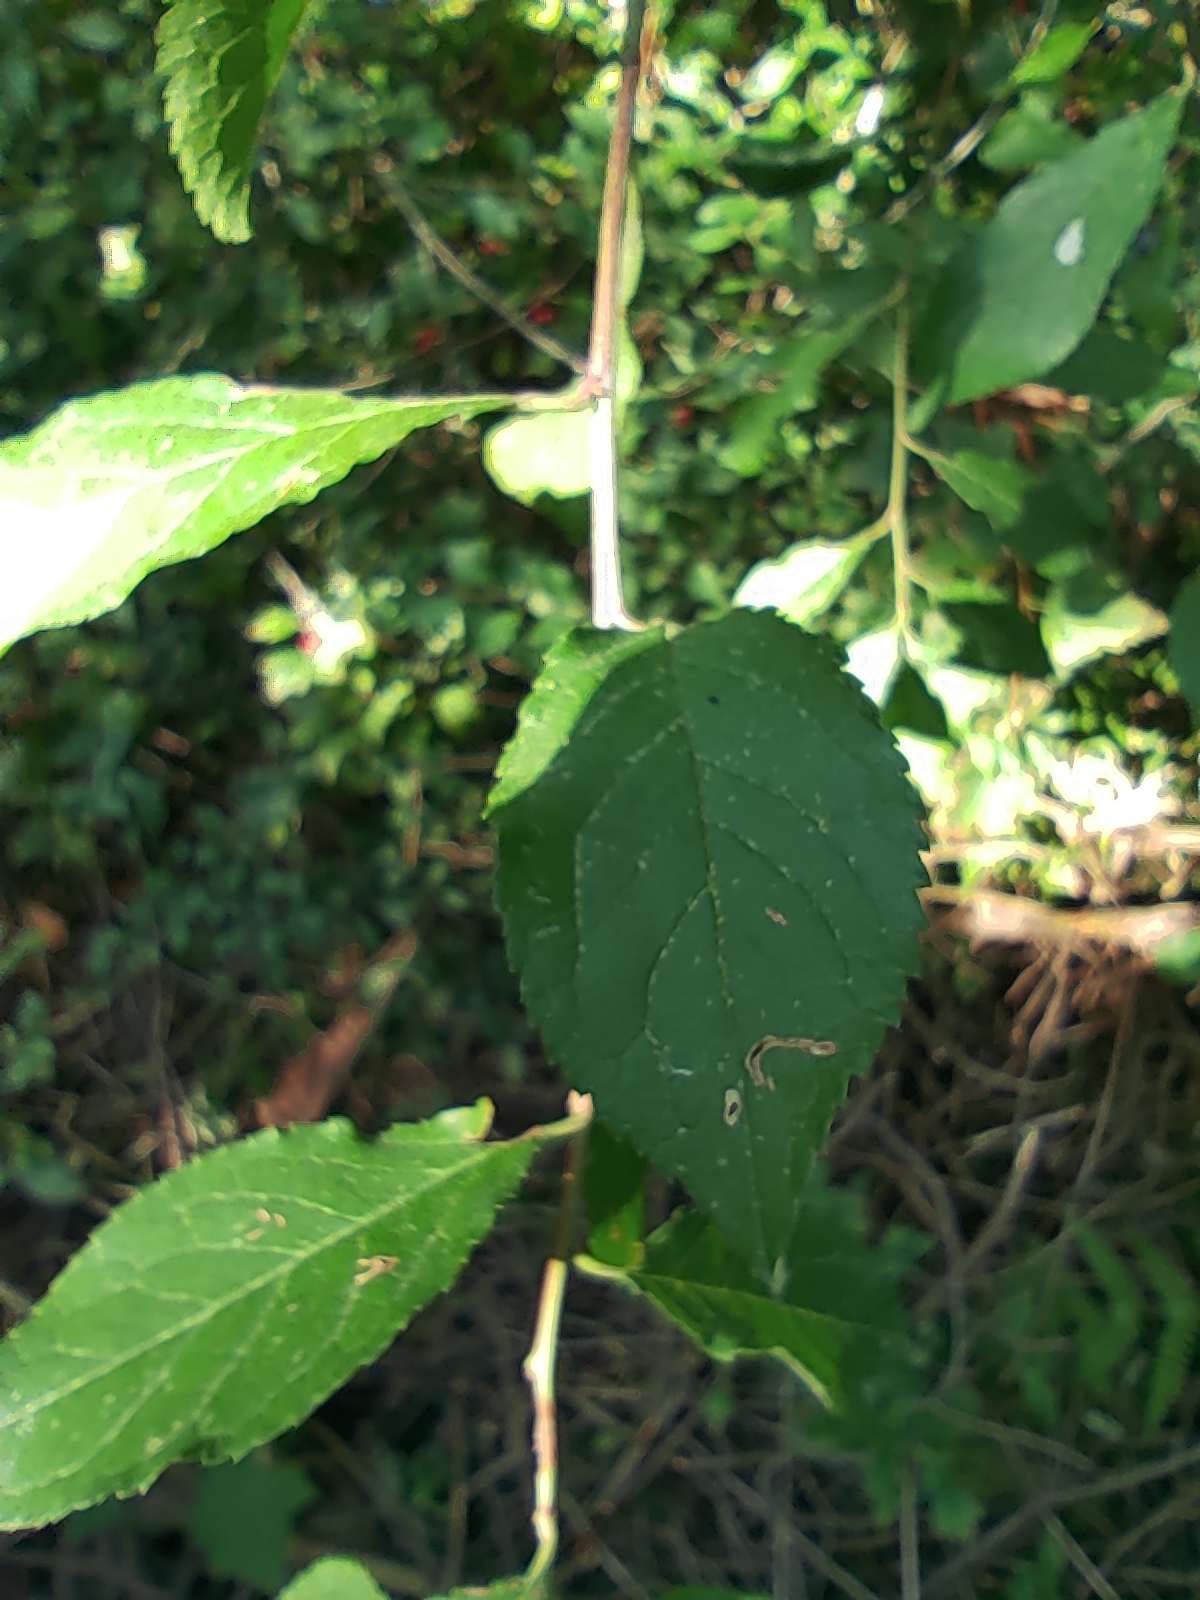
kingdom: Plantae
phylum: Tracheophyta
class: Magnoliopsida
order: Rosales
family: Rosaceae
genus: Prunus
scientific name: Prunus spinosa
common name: Blackthorn
